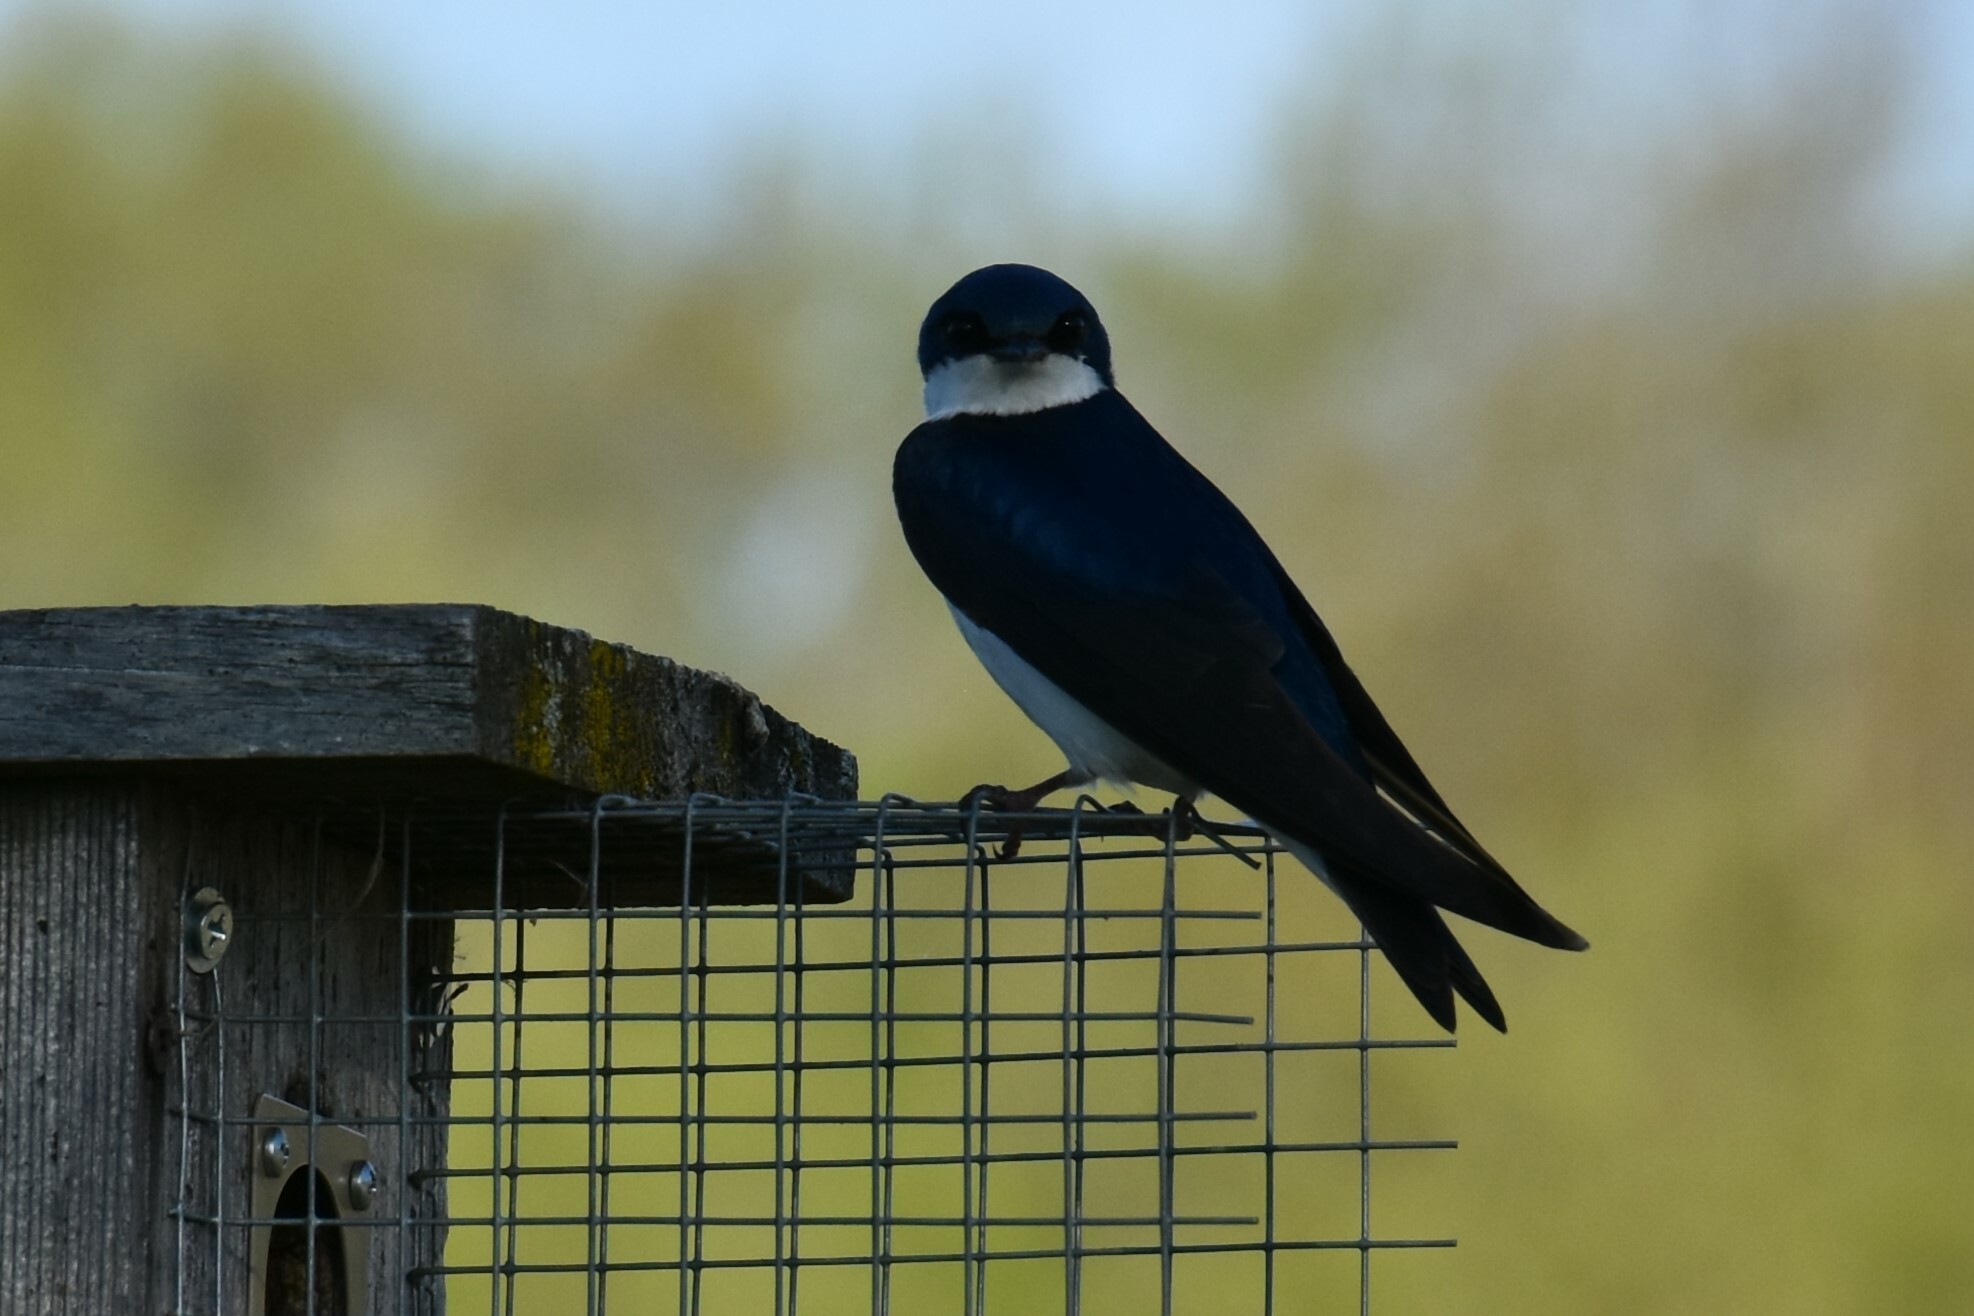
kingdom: Animalia
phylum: Chordata
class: Aves
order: Passeriformes
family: Hirundinidae
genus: Tachycineta
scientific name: Tachycineta bicolor
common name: Tree swallow
